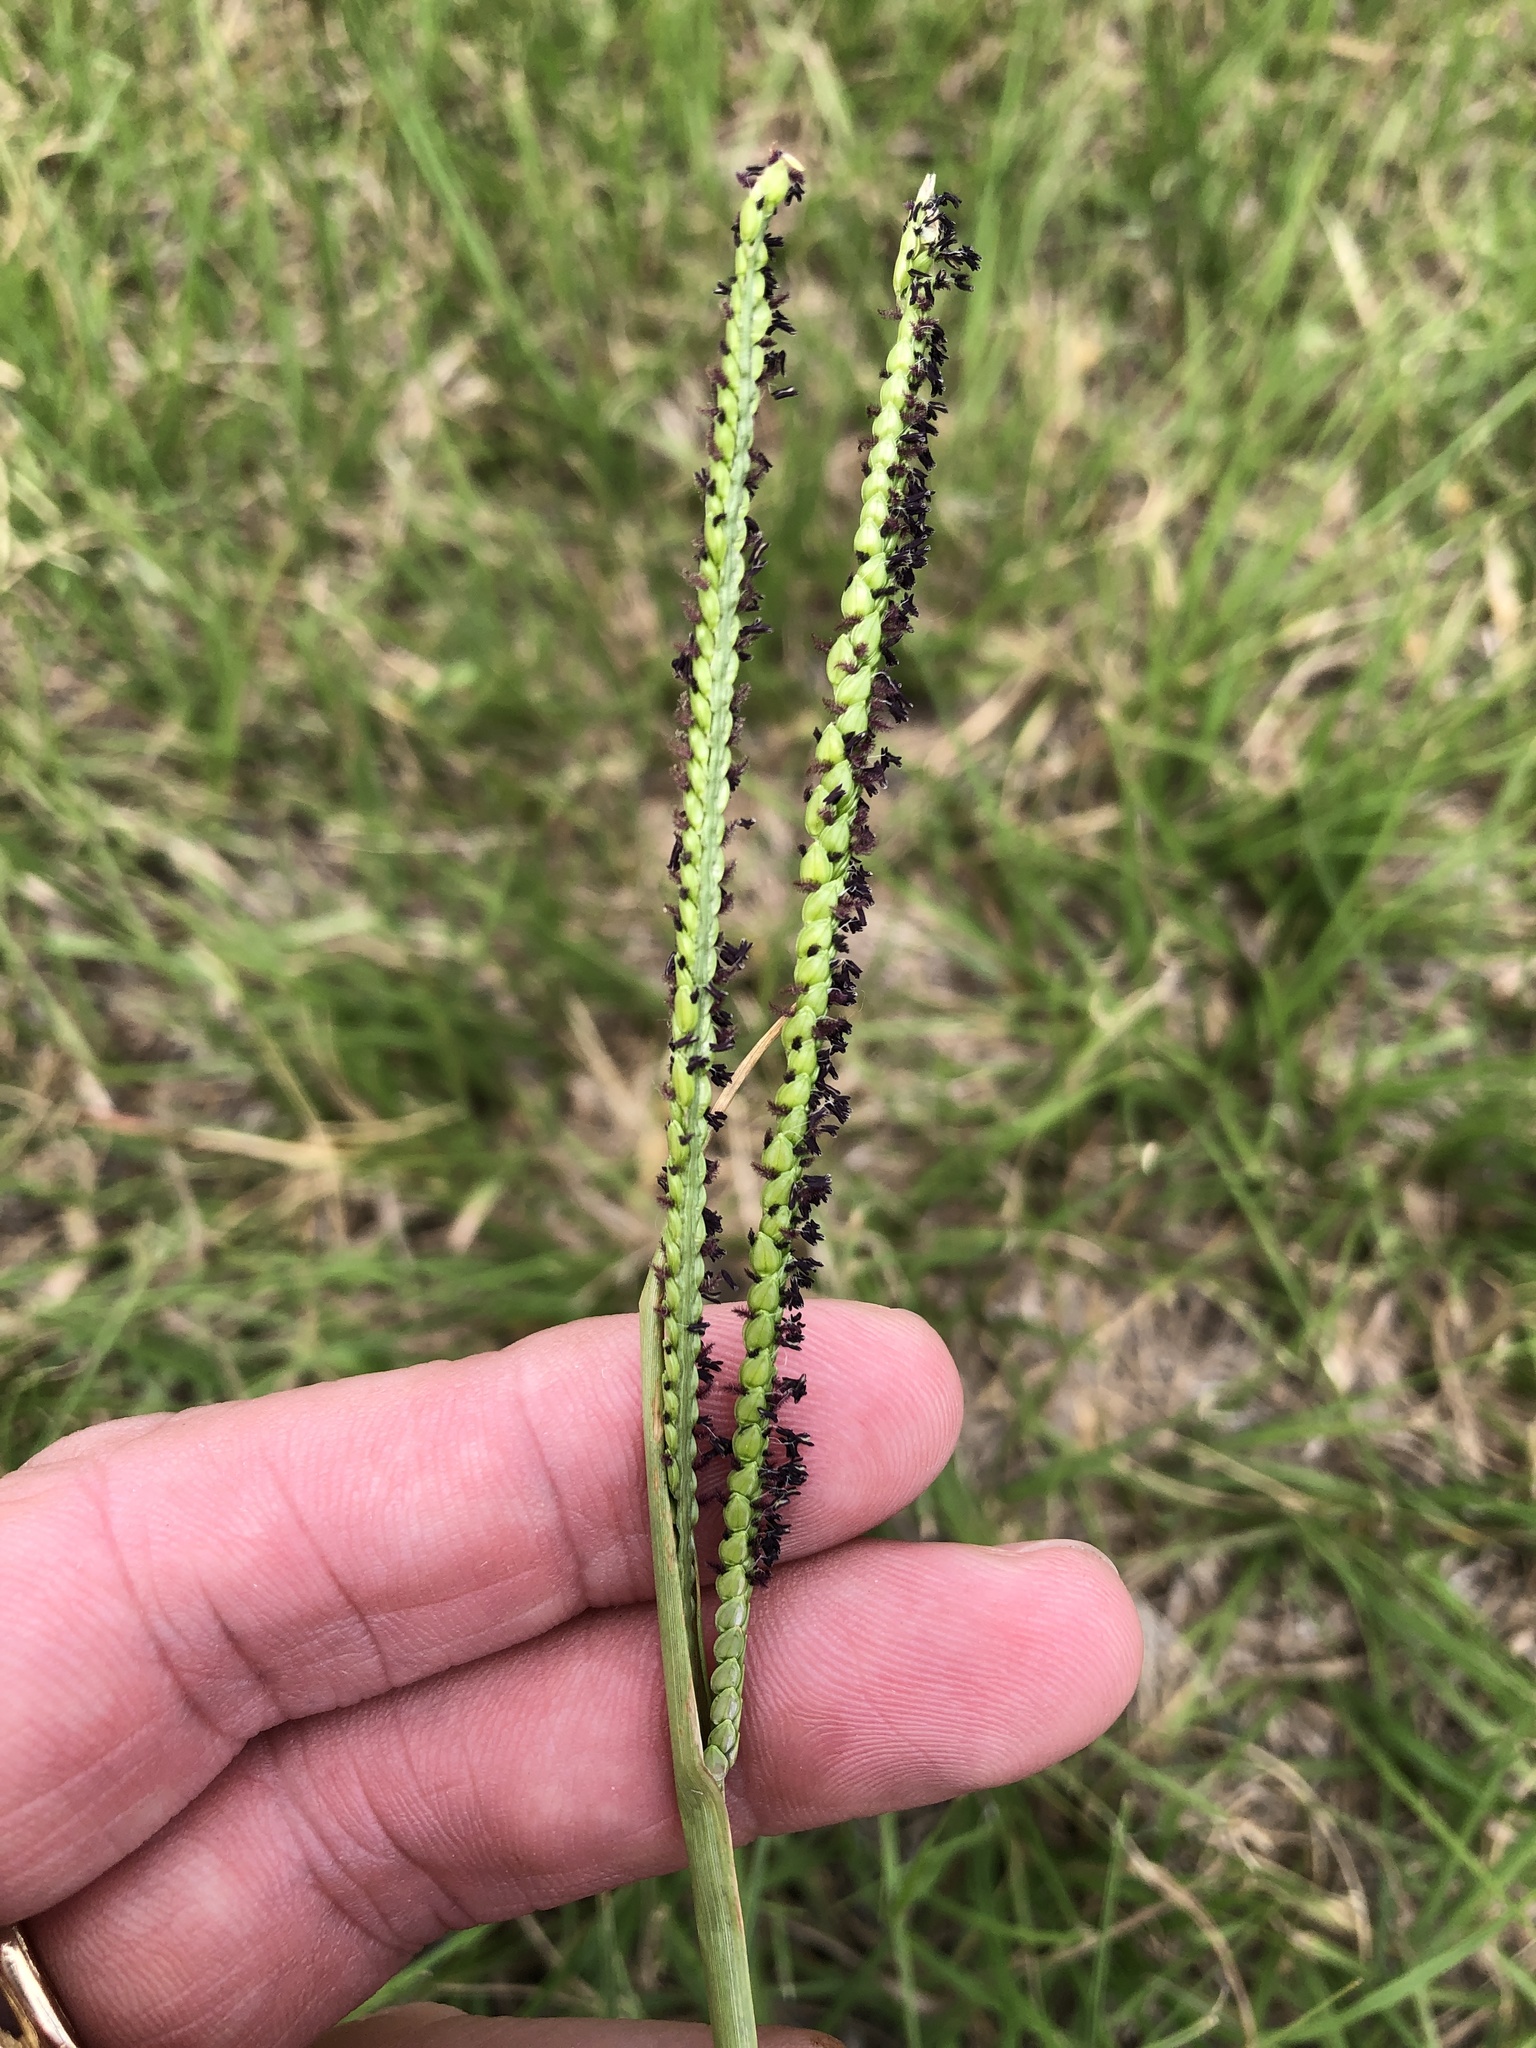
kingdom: Plantae
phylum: Tracheophyta
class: Liliopsida
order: Poales
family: Poaceae
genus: Paspalum
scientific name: Paspalum notatum
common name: Bahiagrass
